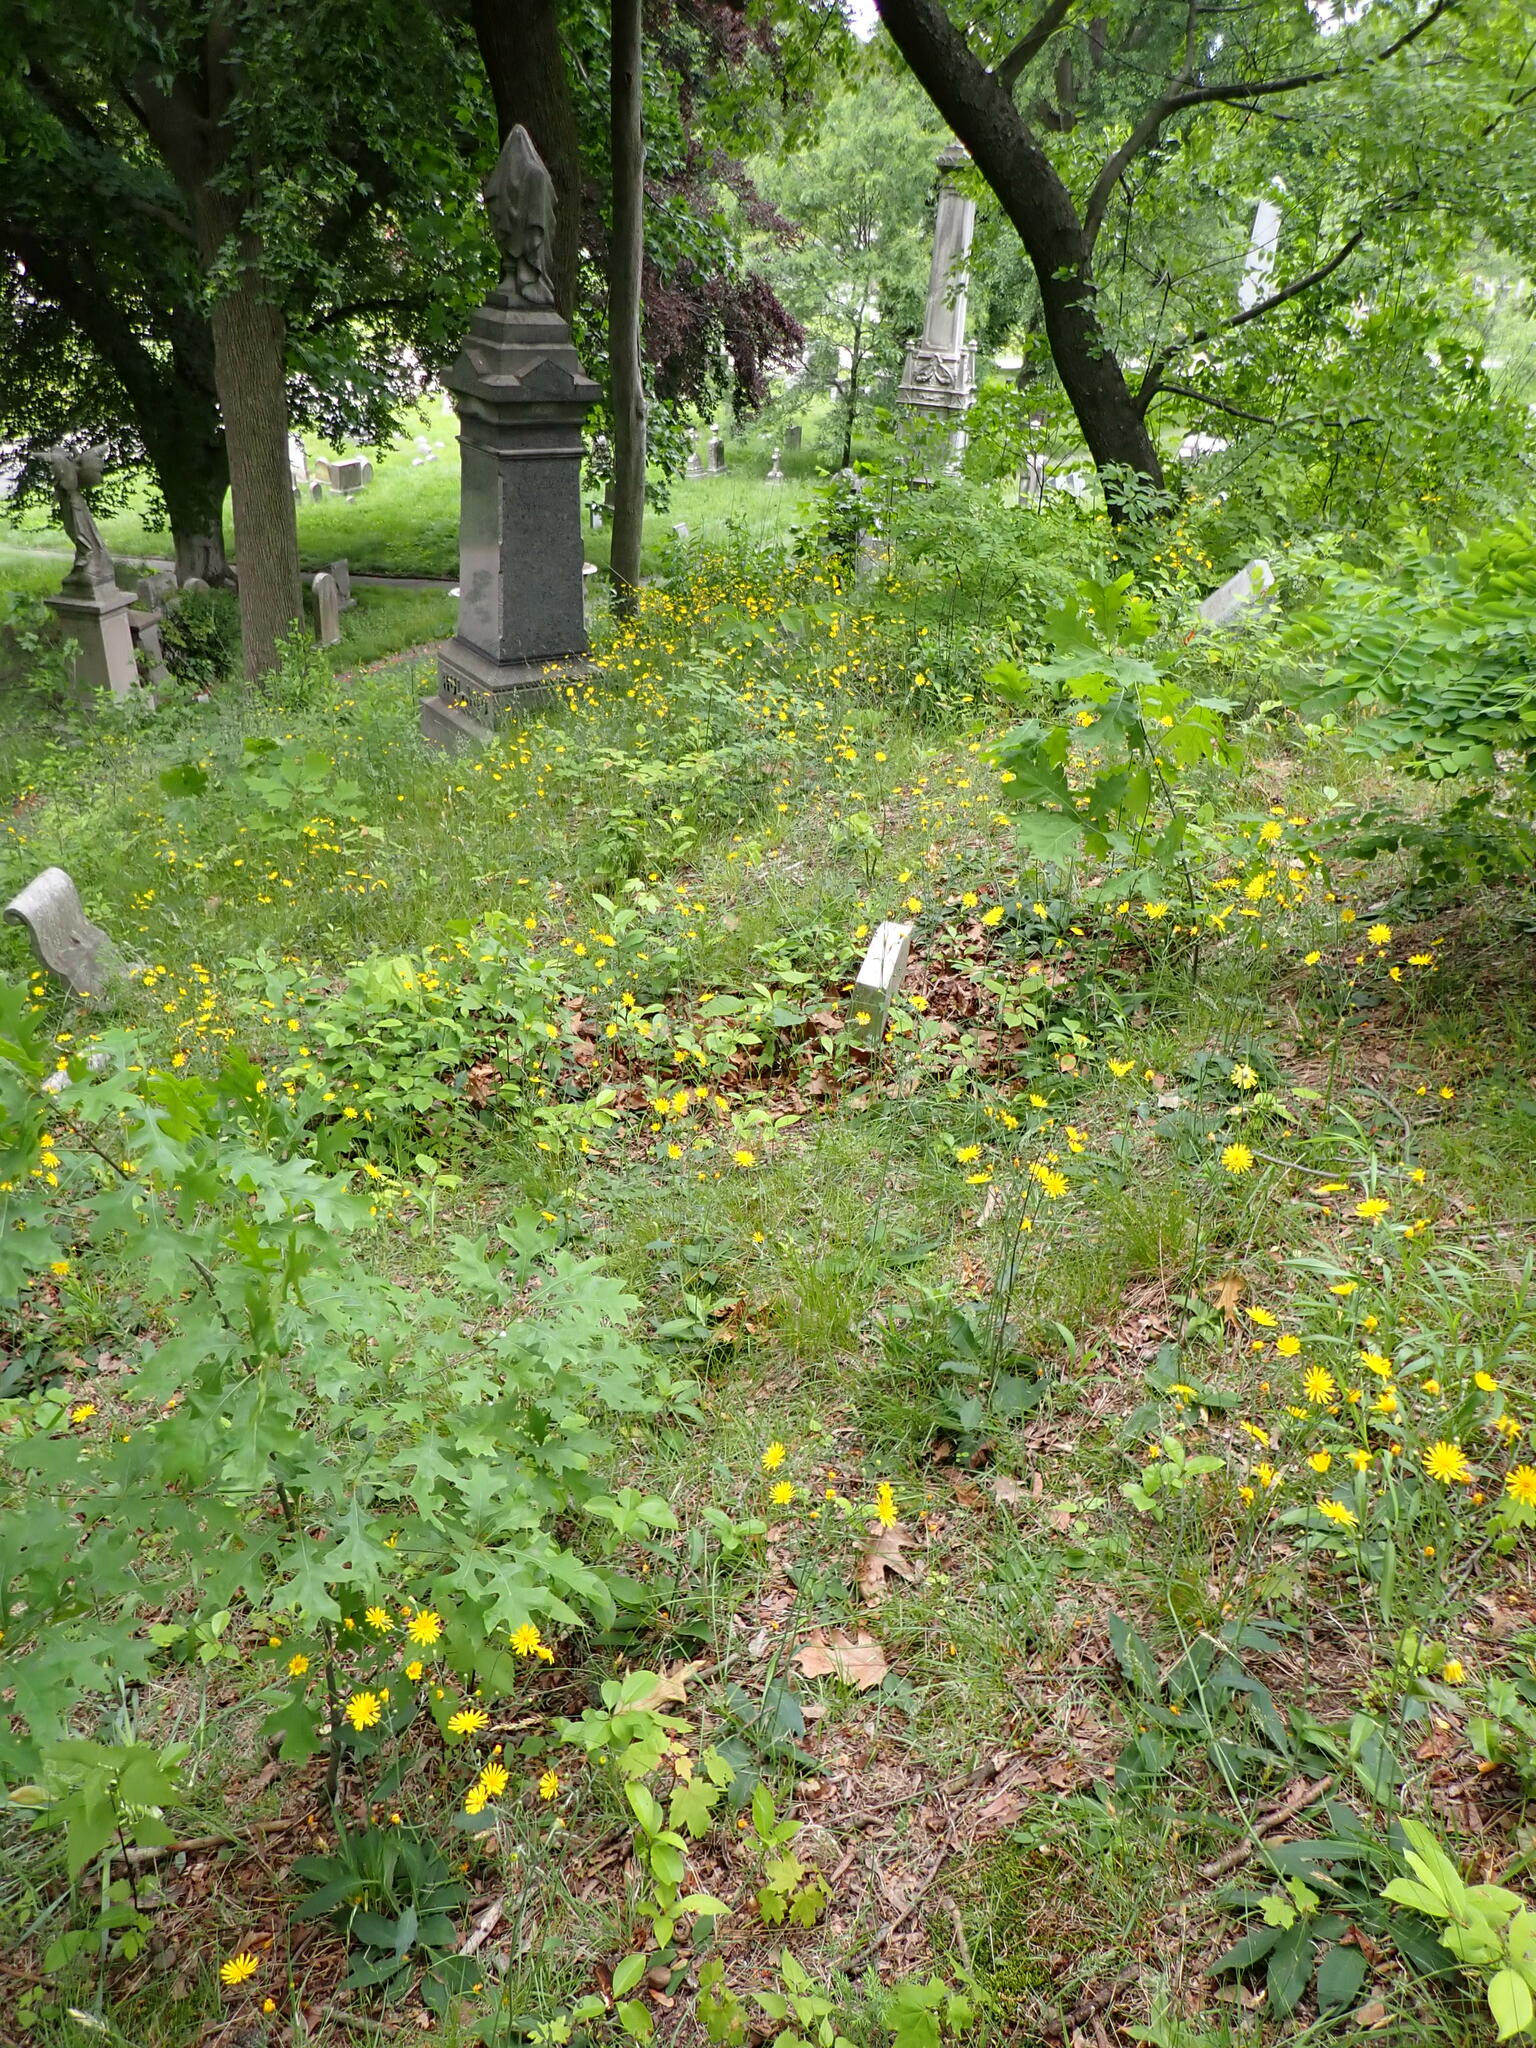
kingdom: Animalia
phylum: Chordata
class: Aves
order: Passeriformes
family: Passerellidae
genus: Spizella
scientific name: Spizella passerina
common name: Chipping sparrow
